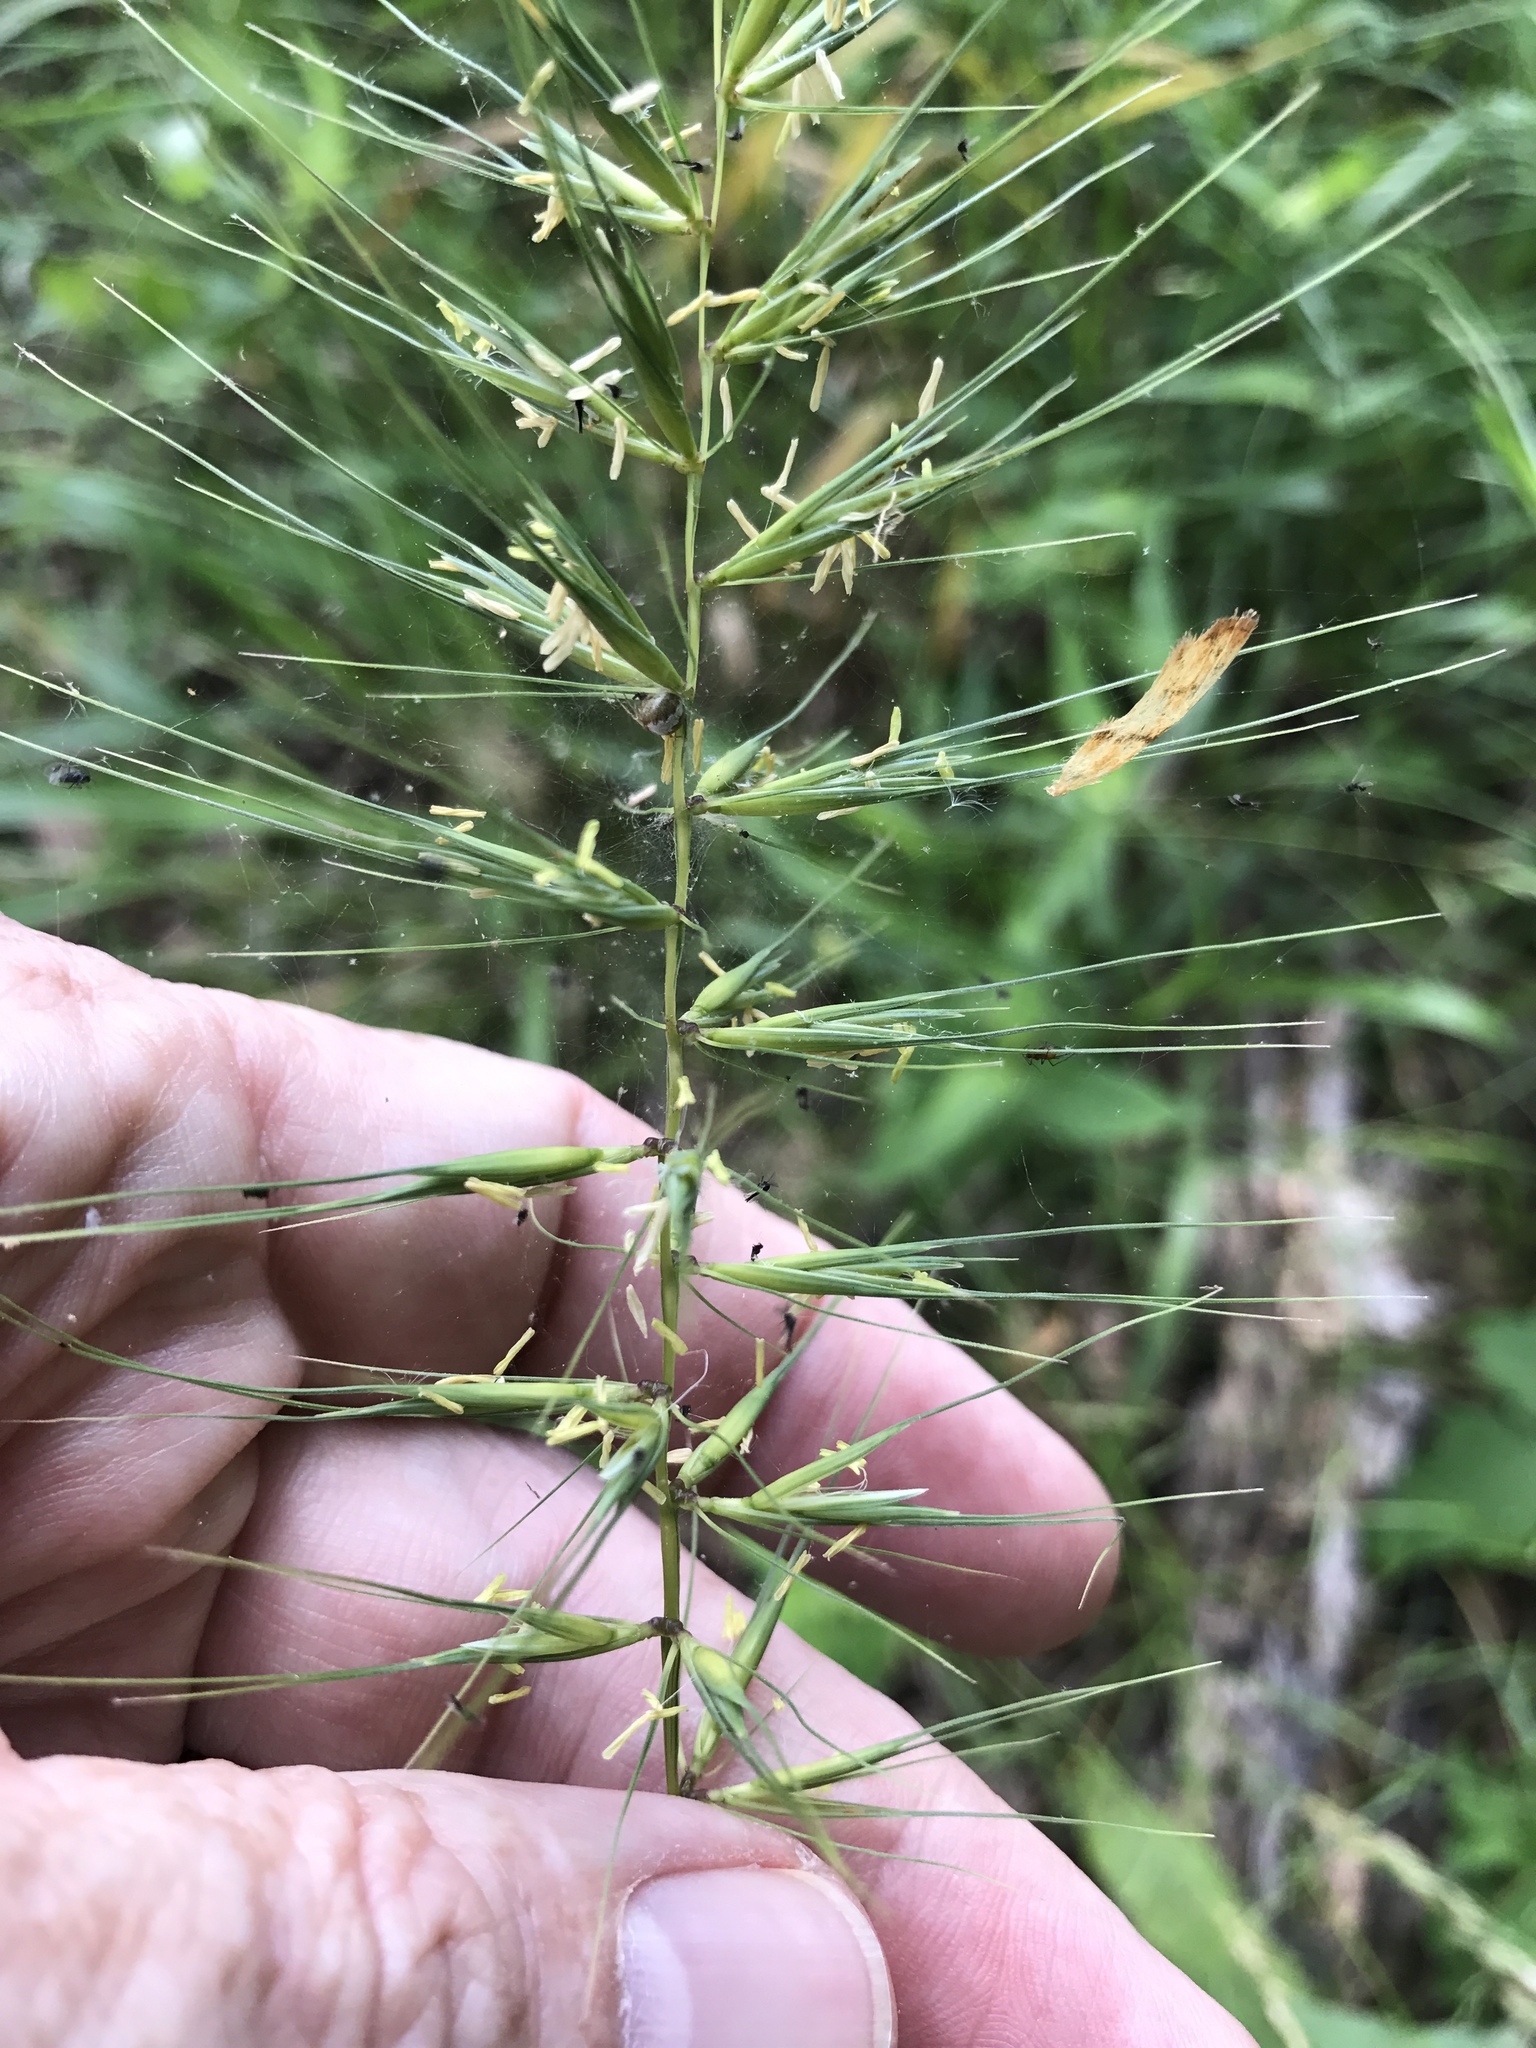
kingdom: Plantae
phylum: Tracheophyta
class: Liliopsida
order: Poales
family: Poaceae
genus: Elymus
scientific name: Elymus hystrix
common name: Bottlebrush grass
